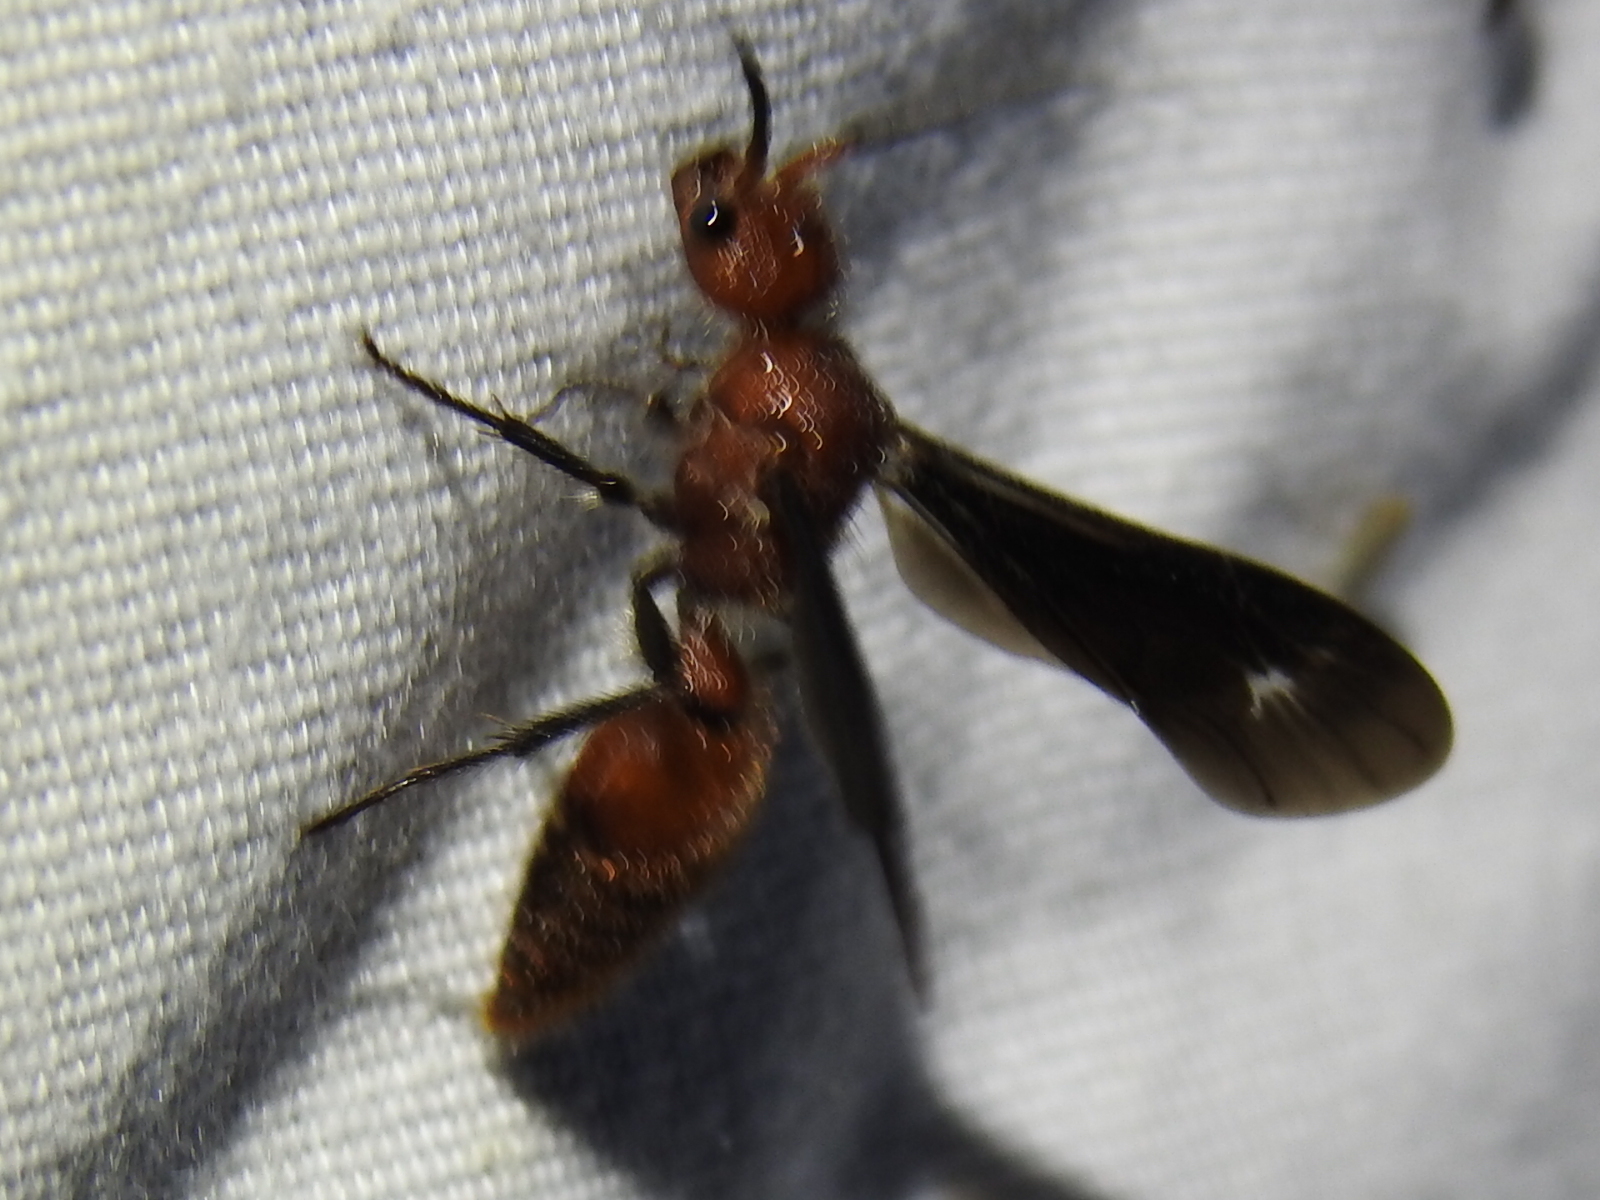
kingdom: Animalia
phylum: Arthropoda
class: Insecta
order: Hymenoptera
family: Mutillidae
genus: Sphaeropthalma
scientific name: Sphaeropthalma
